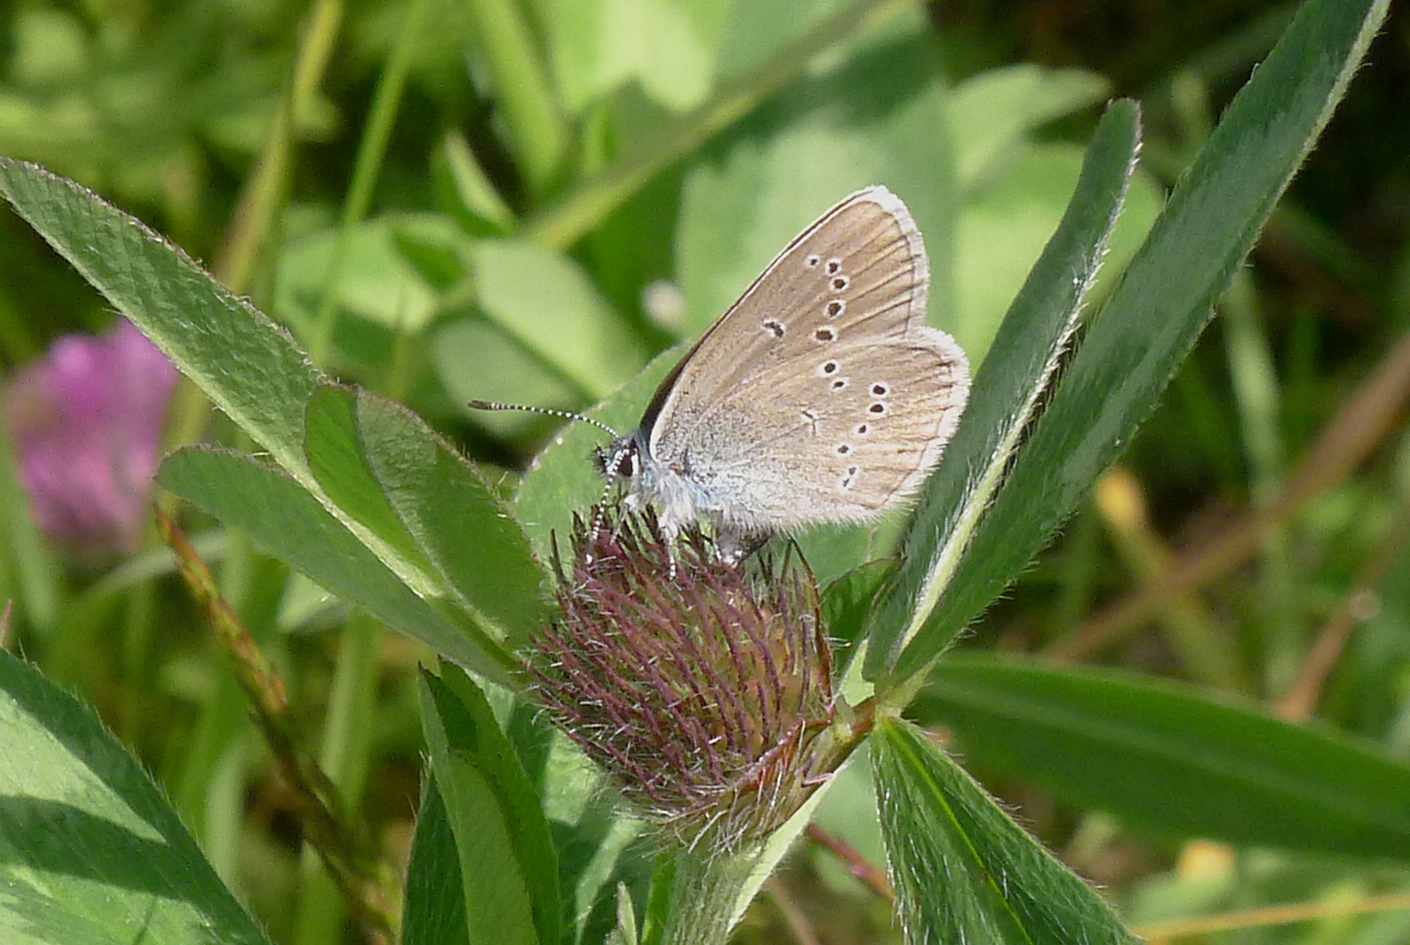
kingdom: Animalia
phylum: Arthropoda
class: Insecta
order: Lepidoptera
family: Lycaenidae
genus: Cyaniris
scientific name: Cyaniris semiargus
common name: Mazarine blue
